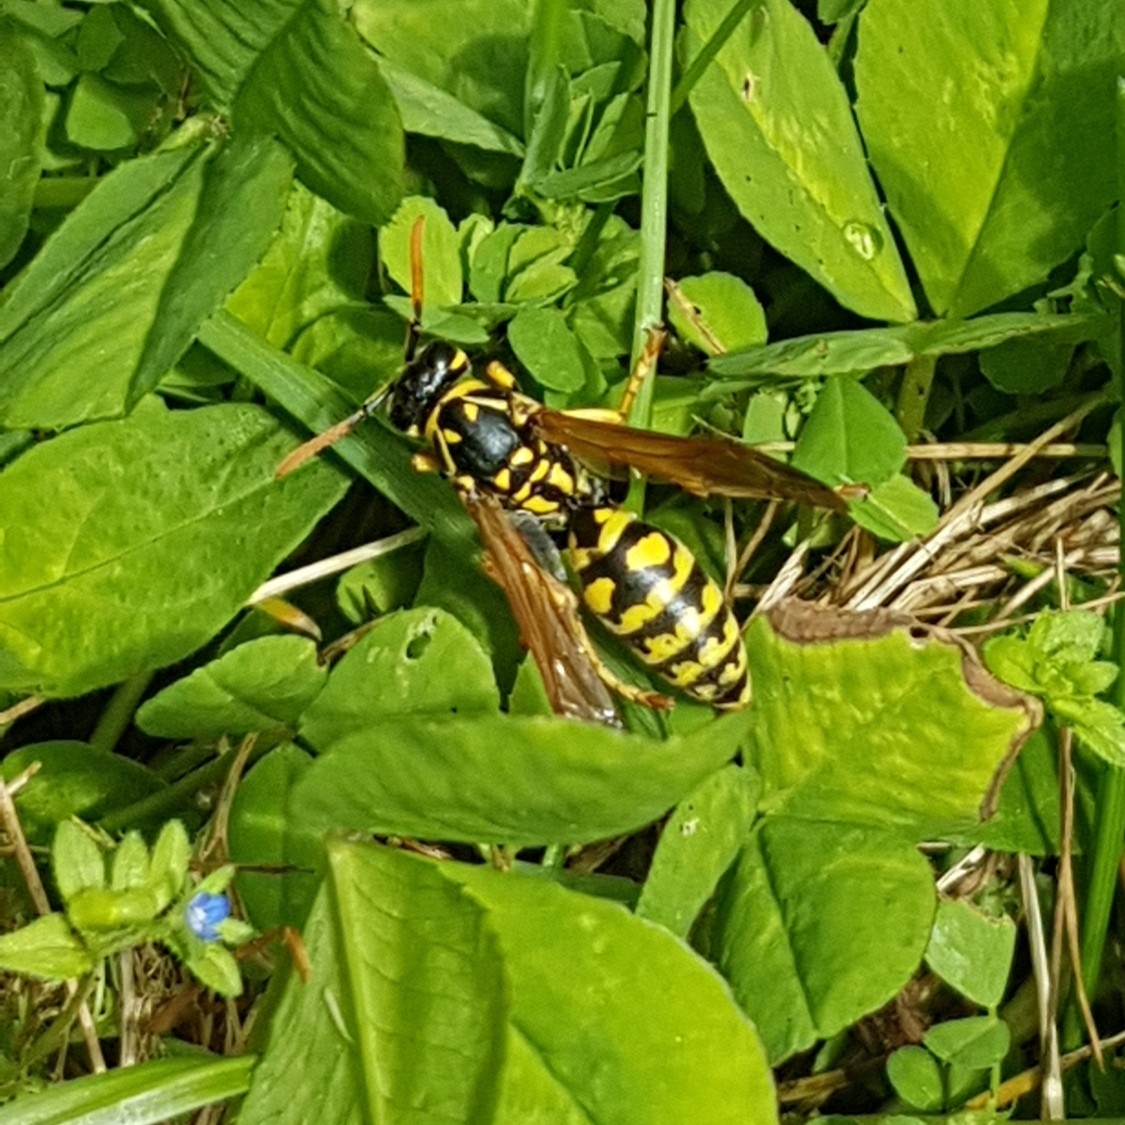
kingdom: Animalia
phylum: Arthropoda
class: Insecta
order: Hymenoptera
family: Eumenidae
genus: Polistes
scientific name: Polistes dominula
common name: Paper wasp
